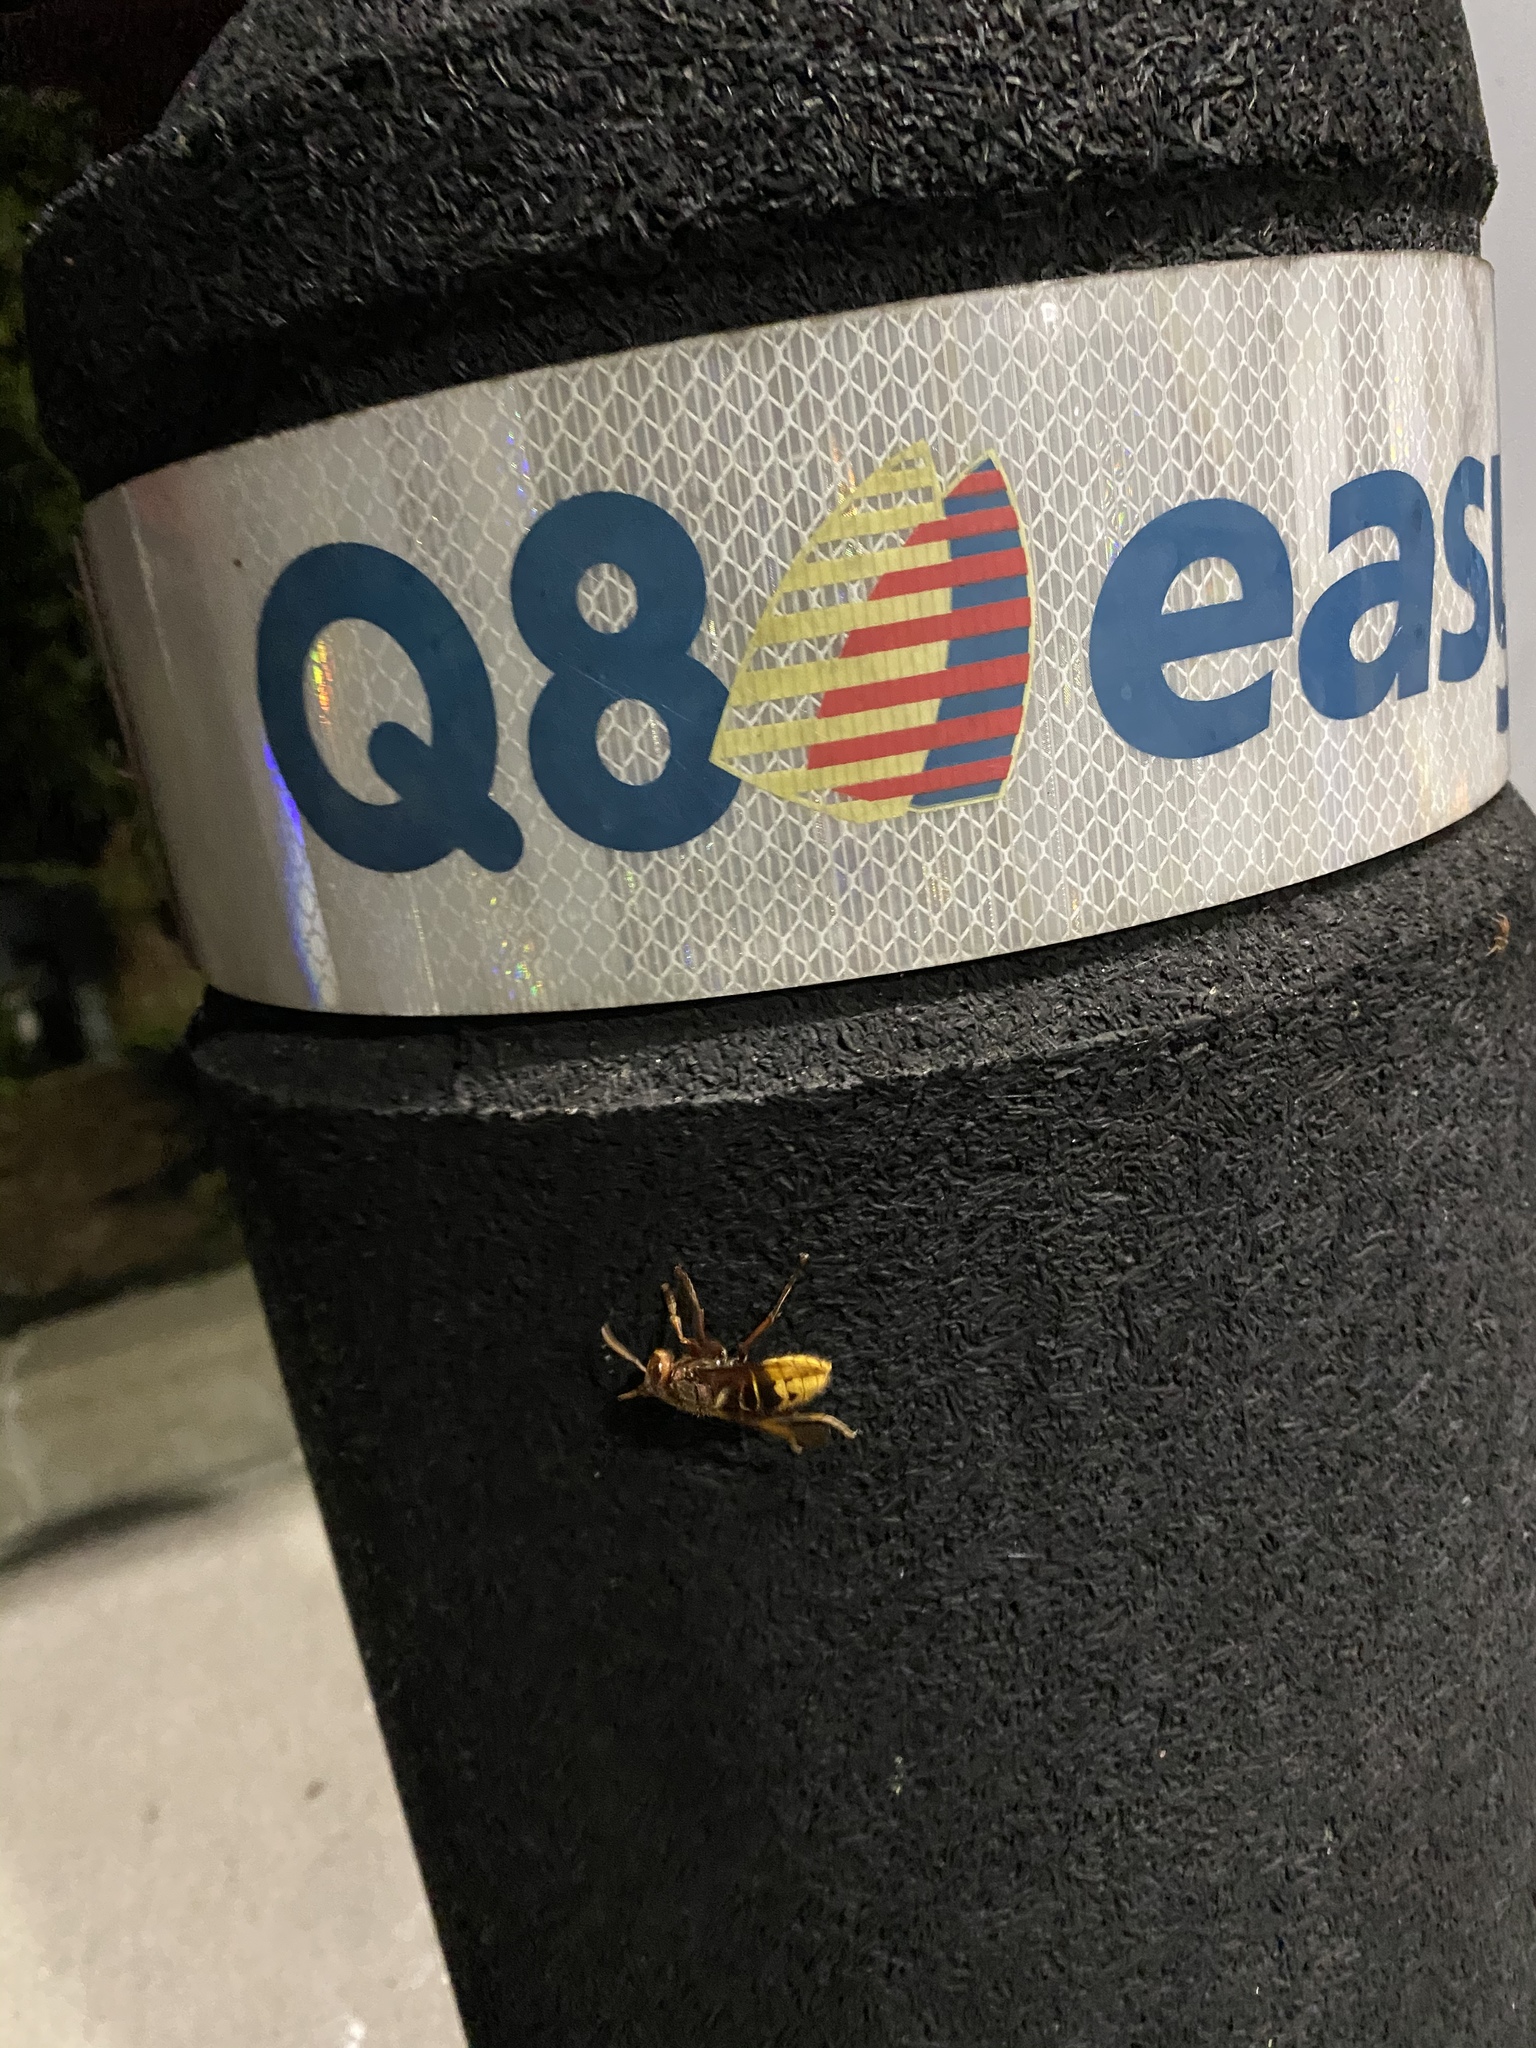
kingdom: Animalia
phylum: Arthropoda
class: Insecta
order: Hymenoptera
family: Vespidae
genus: Vespa
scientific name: Vespa crabro
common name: Hornet
